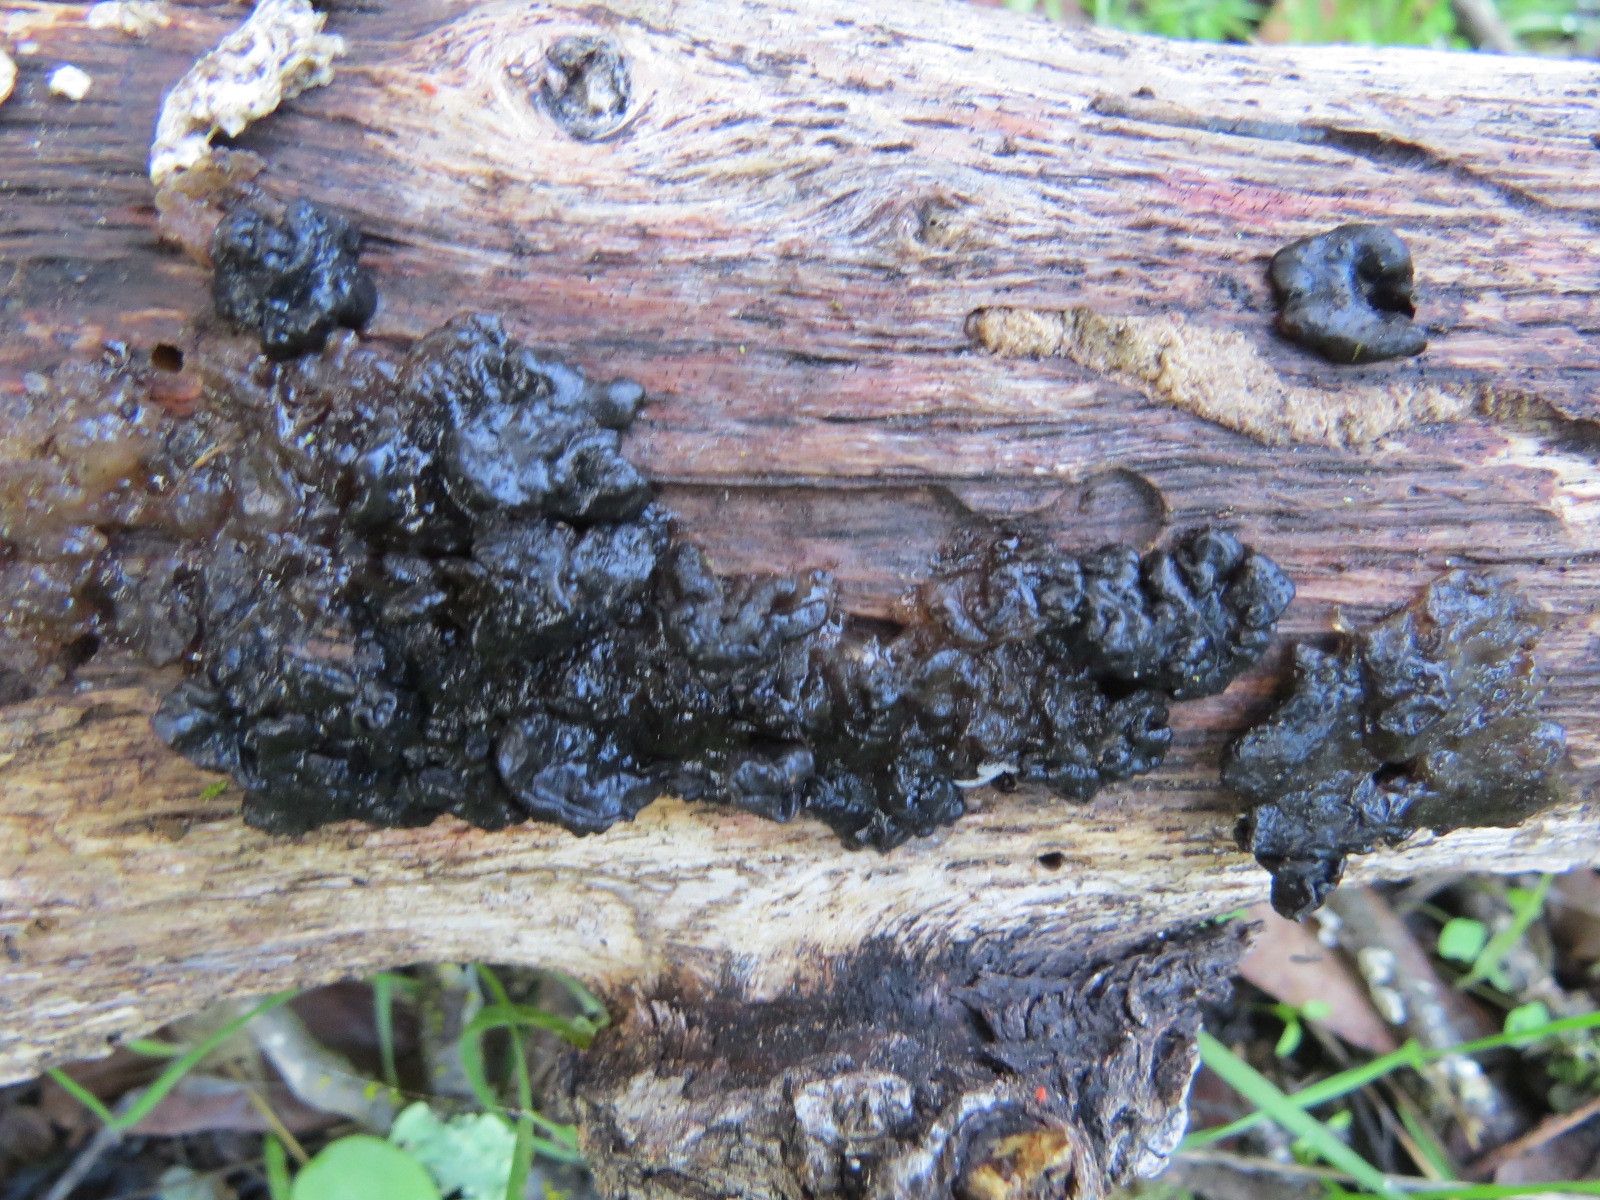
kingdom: Fungi
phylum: Basidiomycota
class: Agaricomycetes
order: Auriculariales
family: Auriculariaceae
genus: Exidia
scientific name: Exidia glandulosa
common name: Witches' butter
